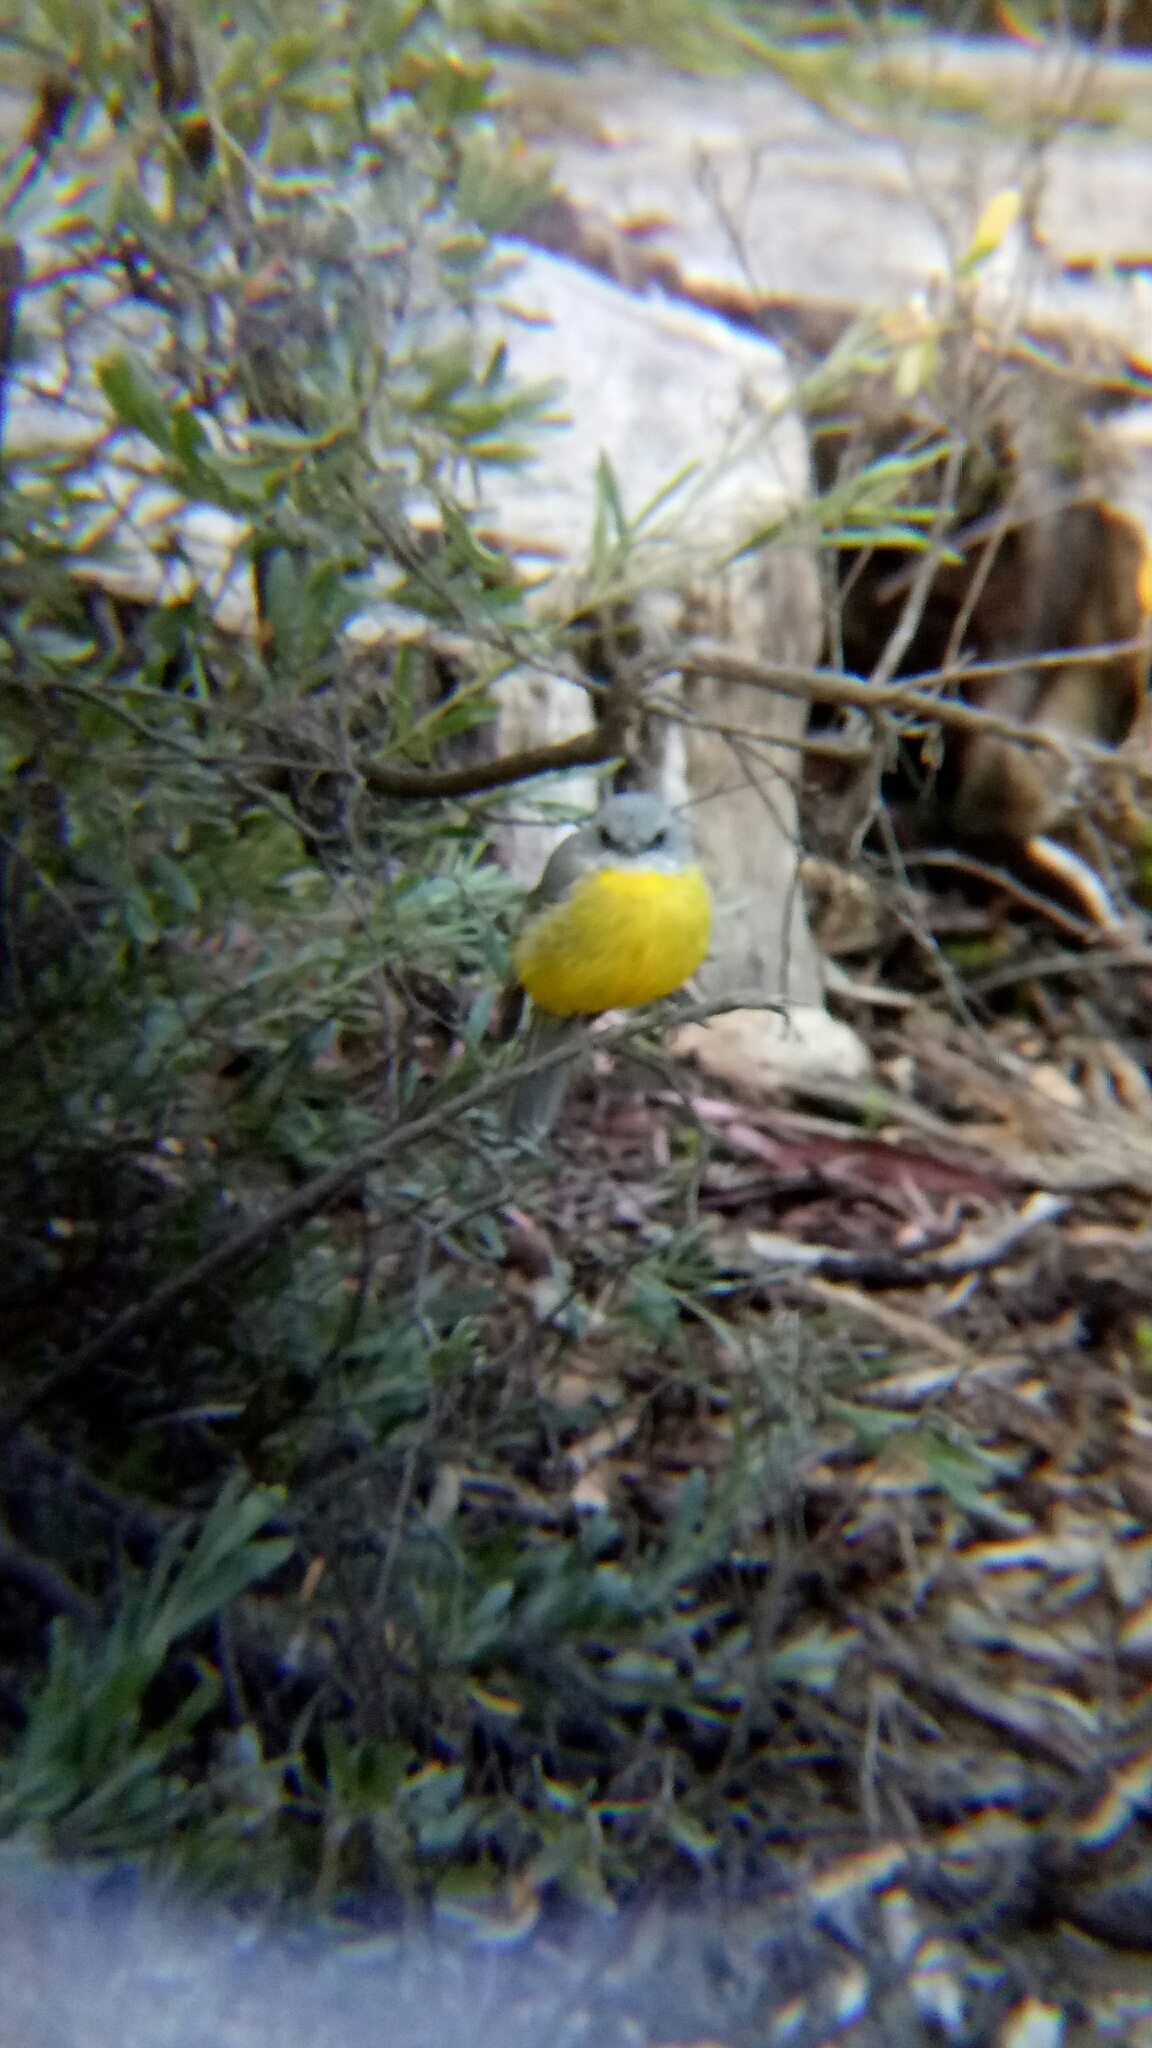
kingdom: Animalia
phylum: Chordata
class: Aves
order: Passeriformes
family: Petroicidae
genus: Eopsaltria
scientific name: Eopsaltria australis
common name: Eastern yellow robin
